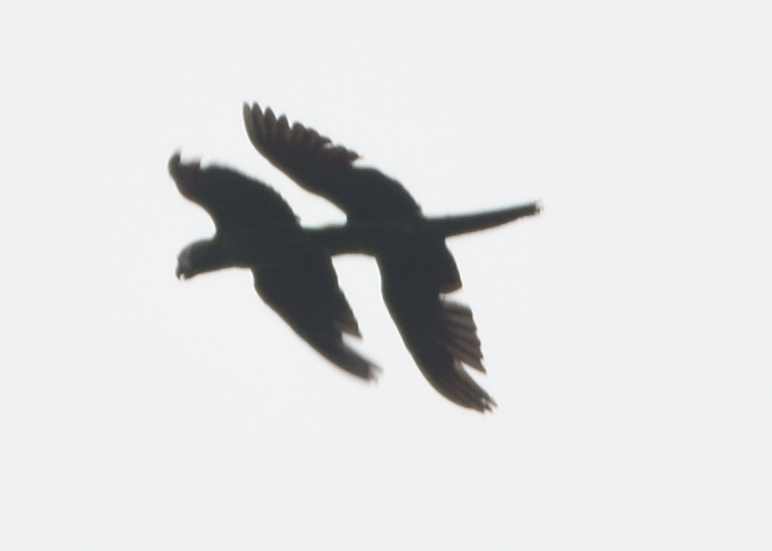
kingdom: Animalia
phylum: Chordata
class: Aves
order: Psittaciformes
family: Psittacidae
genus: Ara
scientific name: Ara severus
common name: Chestnut-fronted macaw
